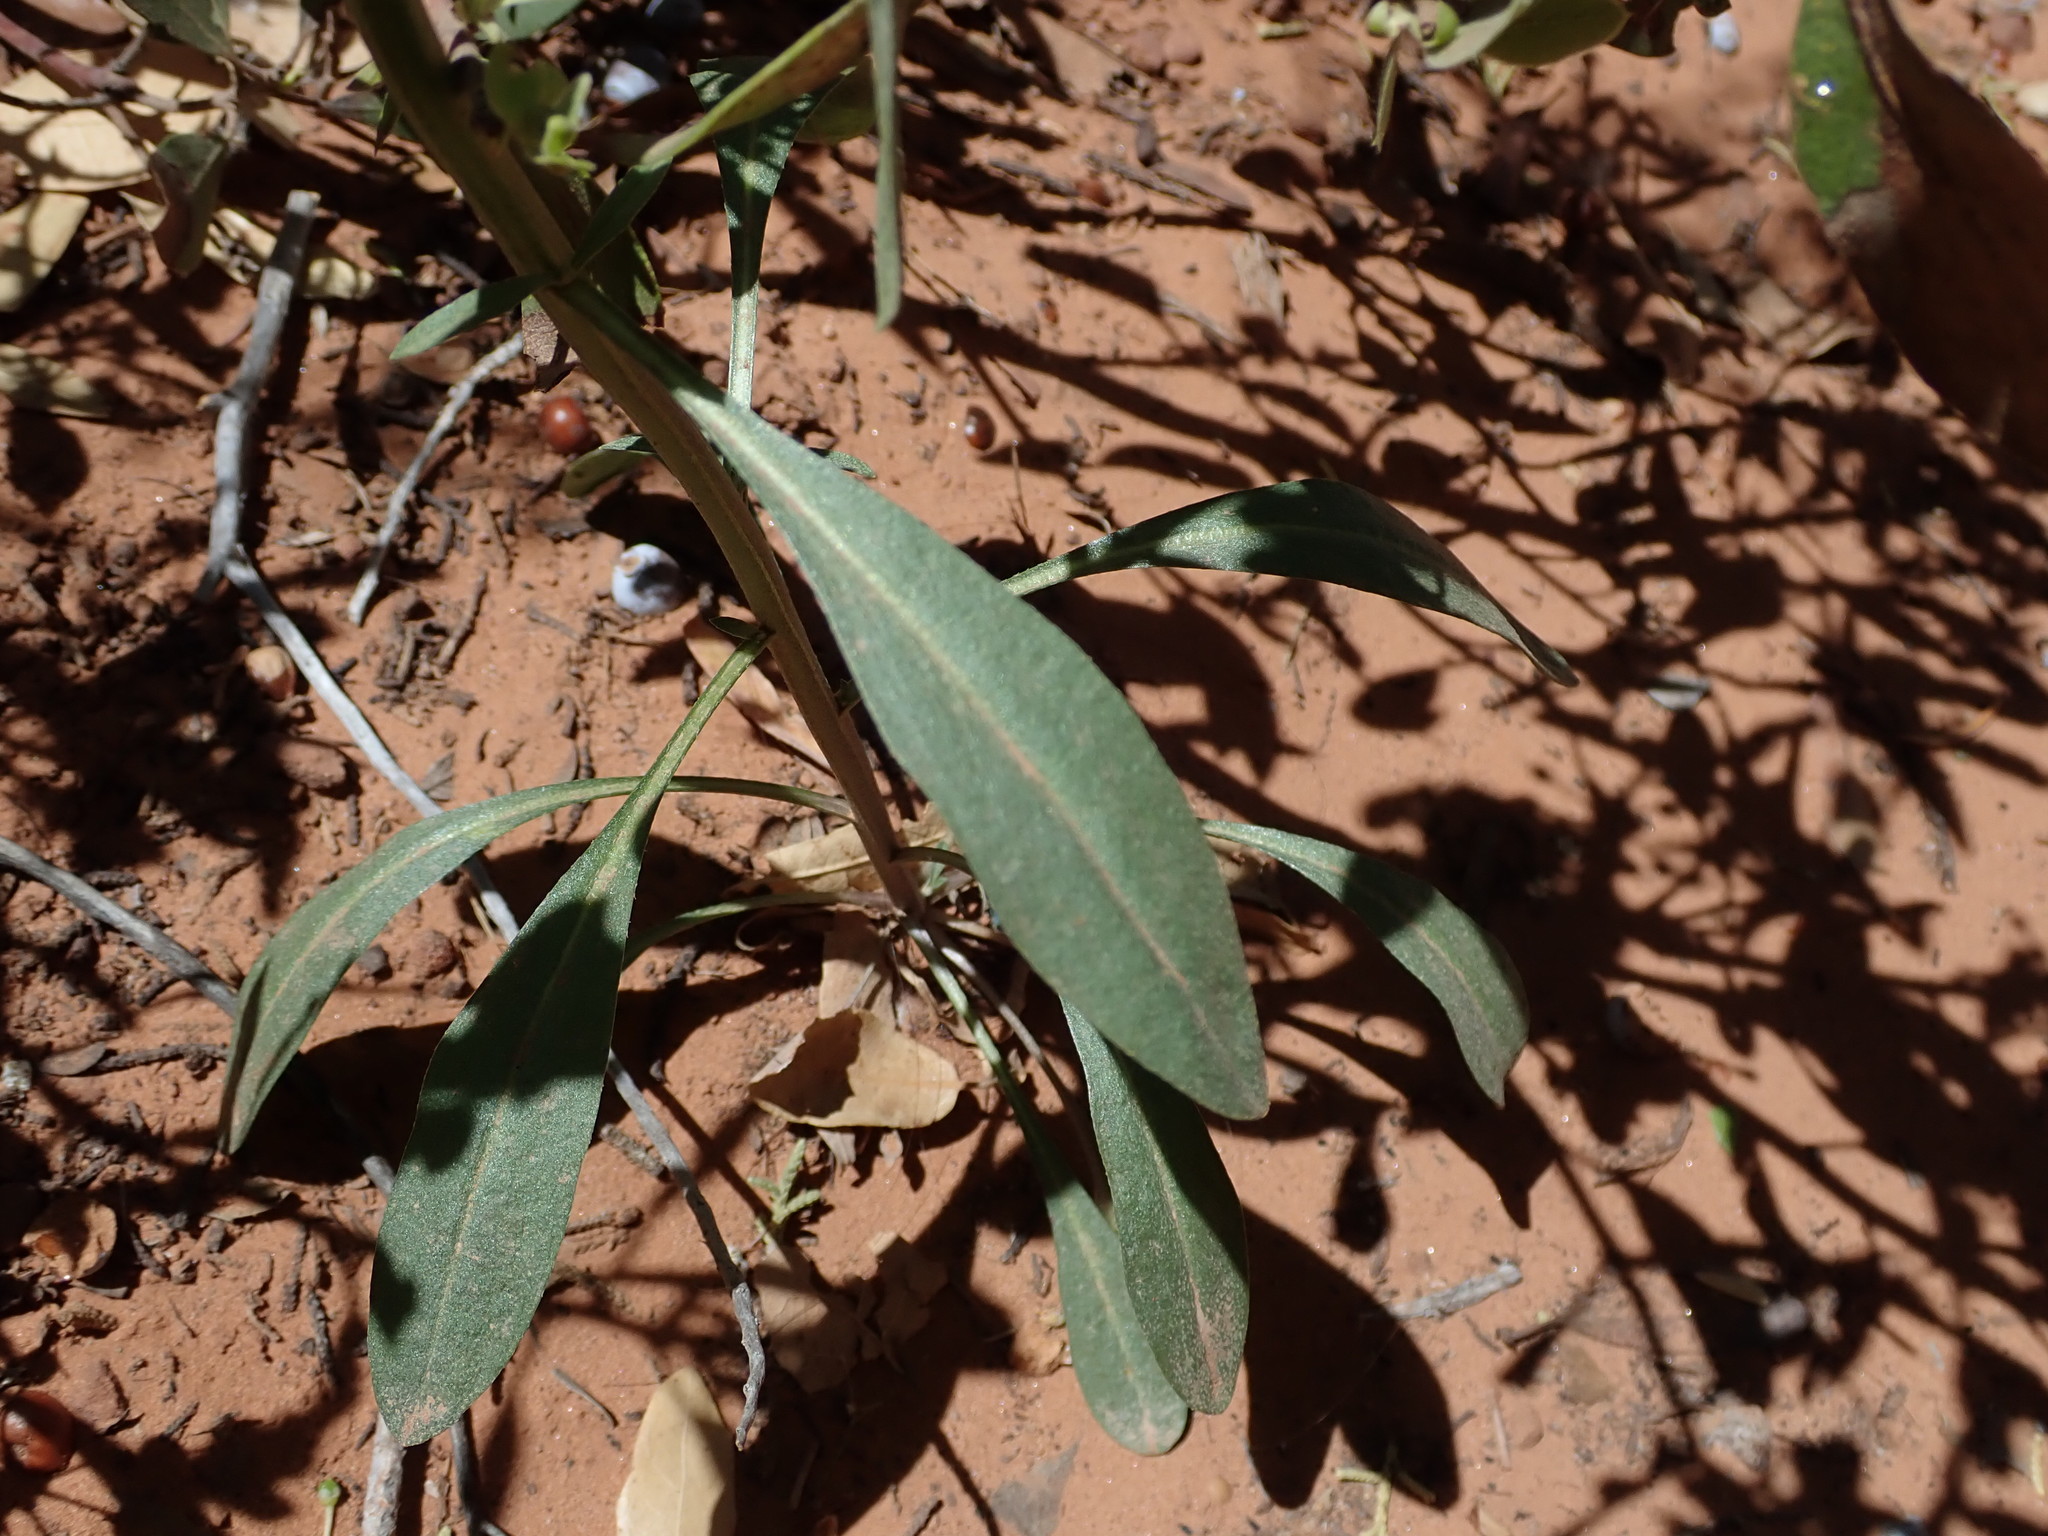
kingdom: Plantae
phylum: Tracheophyta
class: Magnoliopsida
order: Brassicales
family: Brassicaceae
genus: Erysimum
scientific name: Erysimum capitatum
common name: Western wallflower
